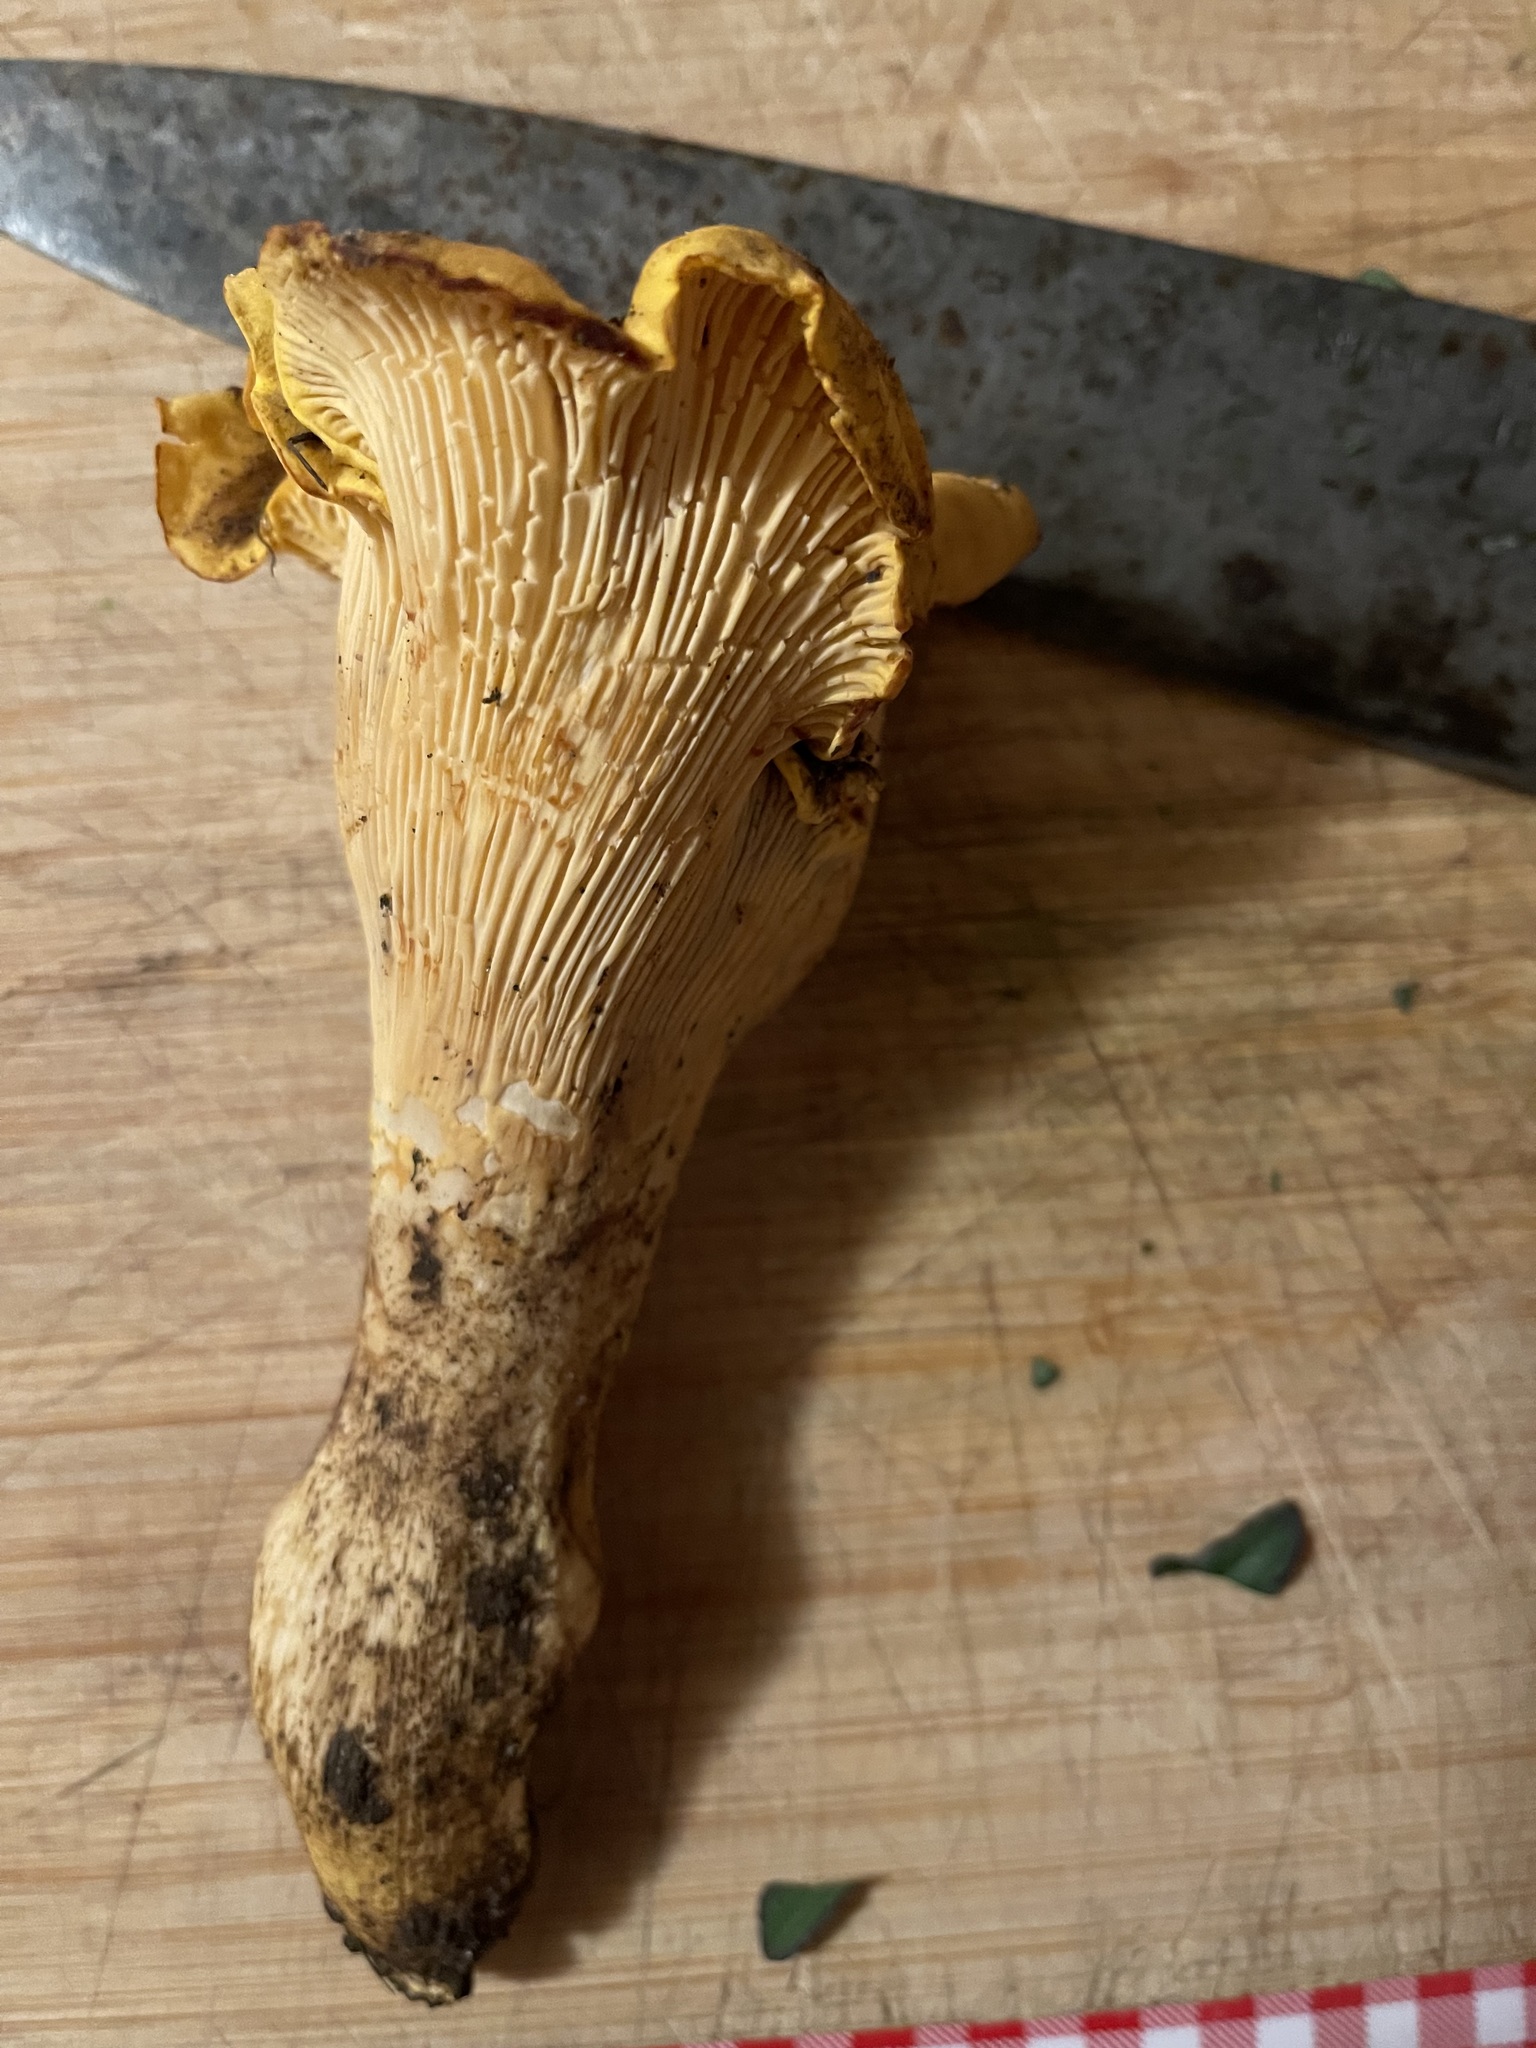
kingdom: Fungi
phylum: Basidiomycota
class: Agaricomycetes
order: Cantharellales
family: Hydnaceae
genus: Cantharellus
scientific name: Cantharellus californicus
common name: California golden chanterelle
